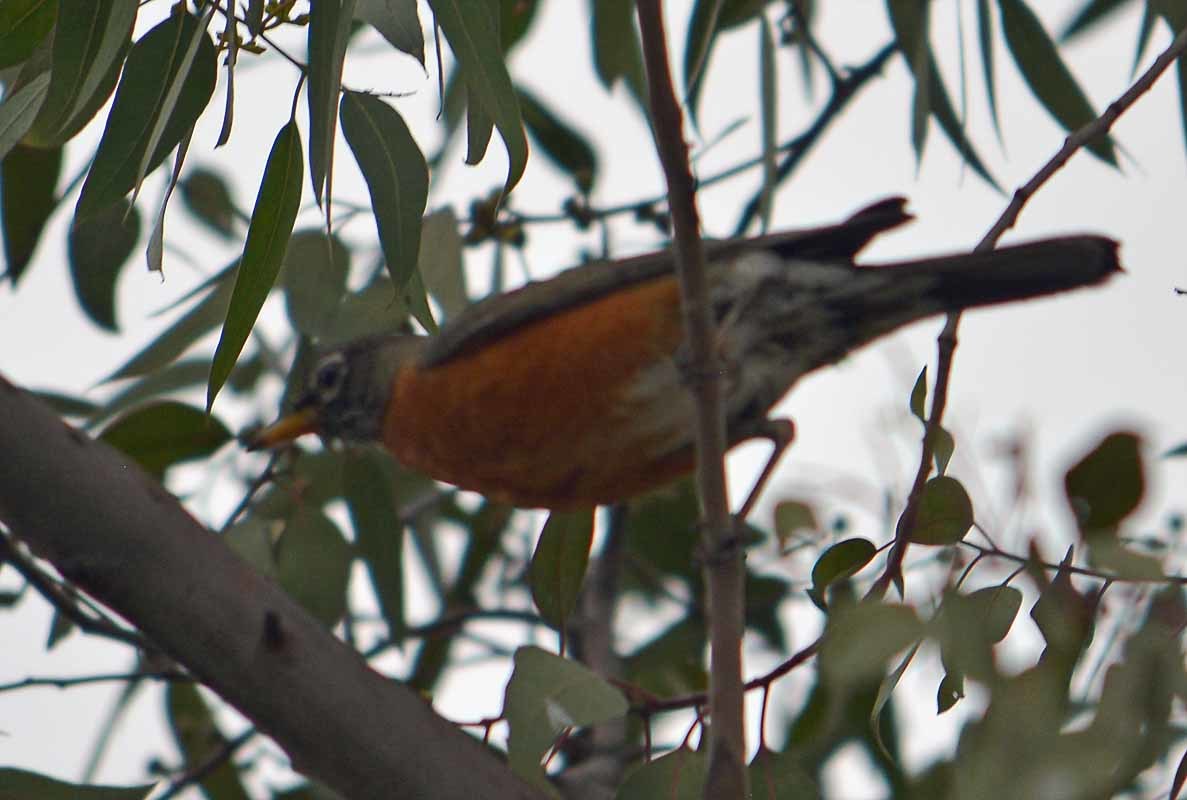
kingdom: Animalia
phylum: Chordata
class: Aves
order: Passeriformes
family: Turdidae
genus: Turdus
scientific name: Turdus migratorius
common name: American robin
